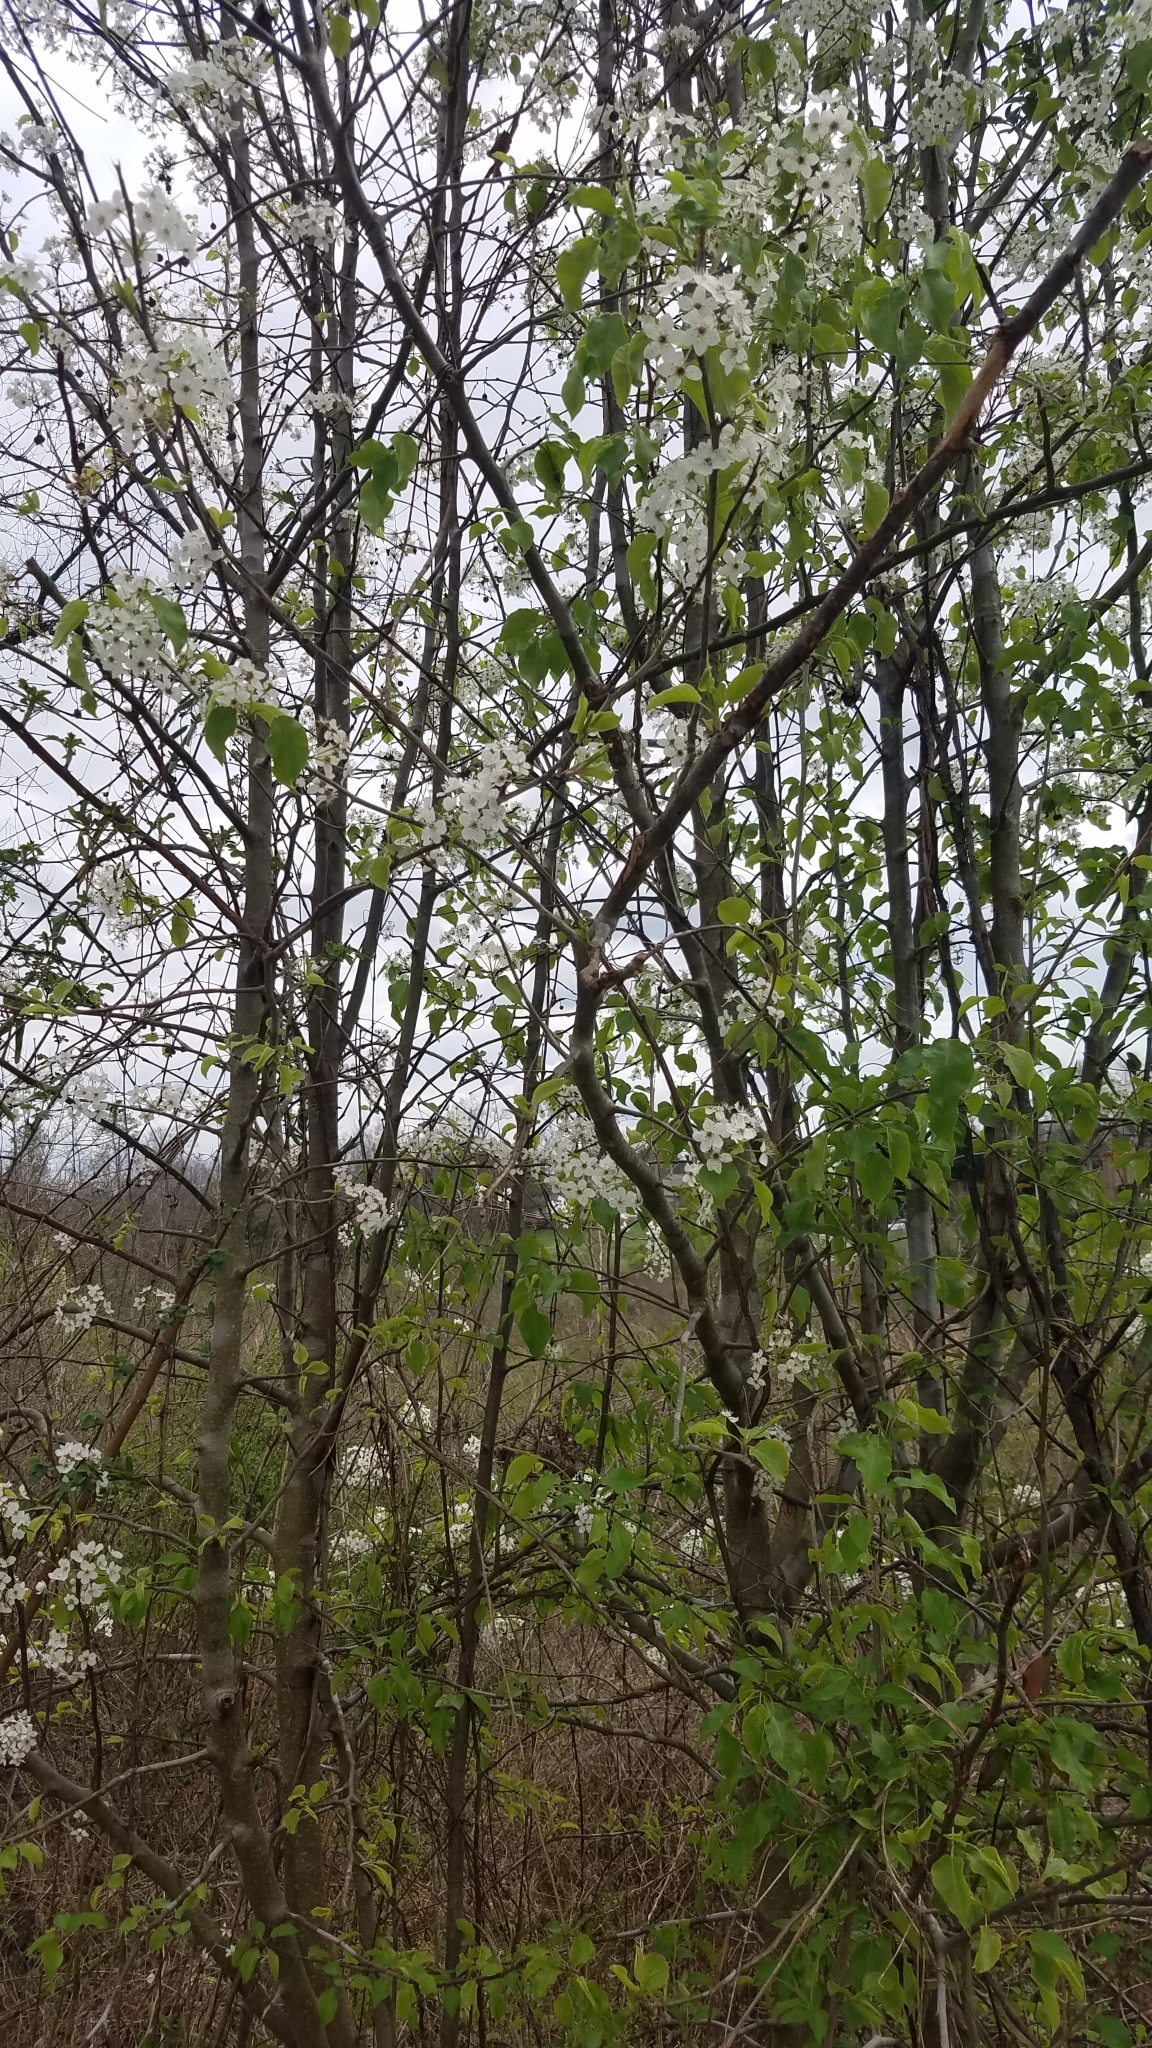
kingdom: Plantae
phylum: Tracheophyta
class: Magnoliopsida
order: Rosales
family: Rosaceae
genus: Pyrus
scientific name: Pyrus calleryana
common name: Callery pear
